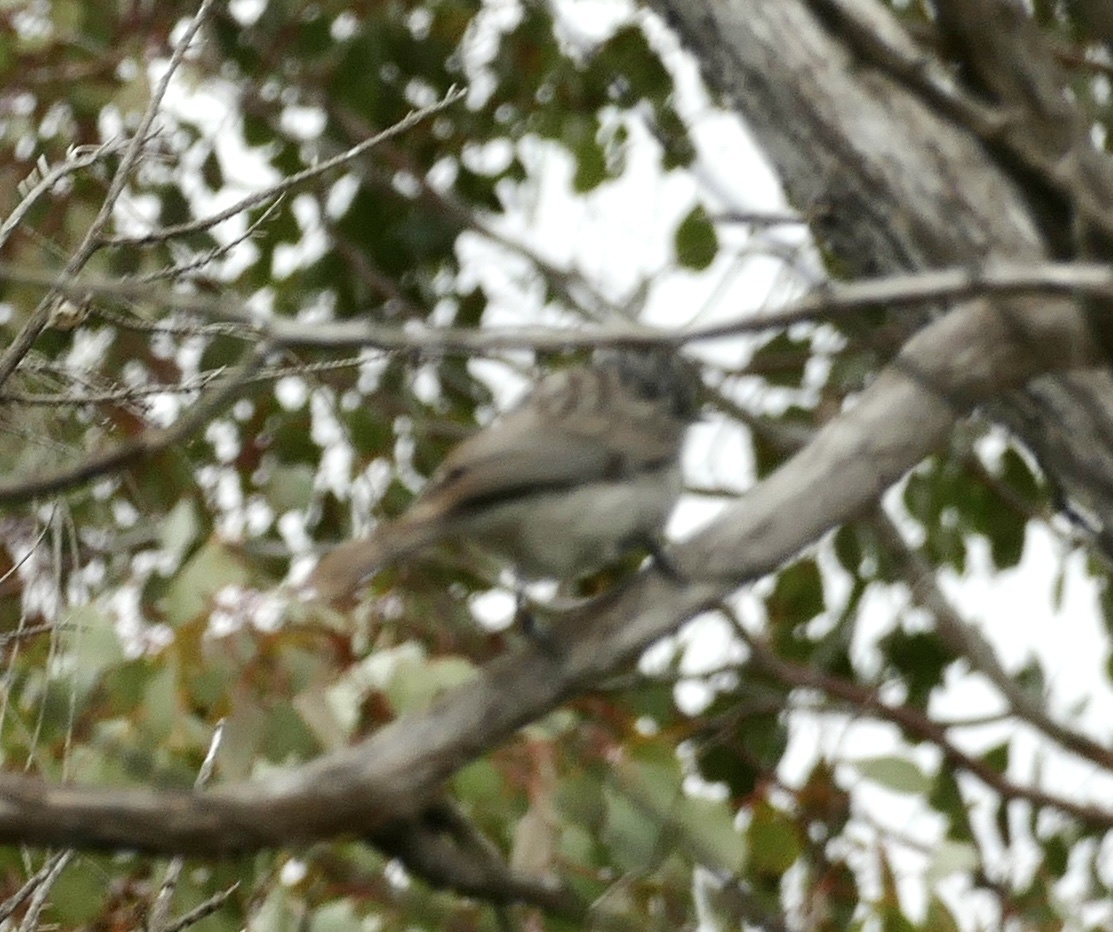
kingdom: Animalia
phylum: Chordata
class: Aves
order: Passeriformes
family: Meliphagidae
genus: Plectorhyncha
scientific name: Plectorhyncha lanceolata
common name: Striped honeyeater
